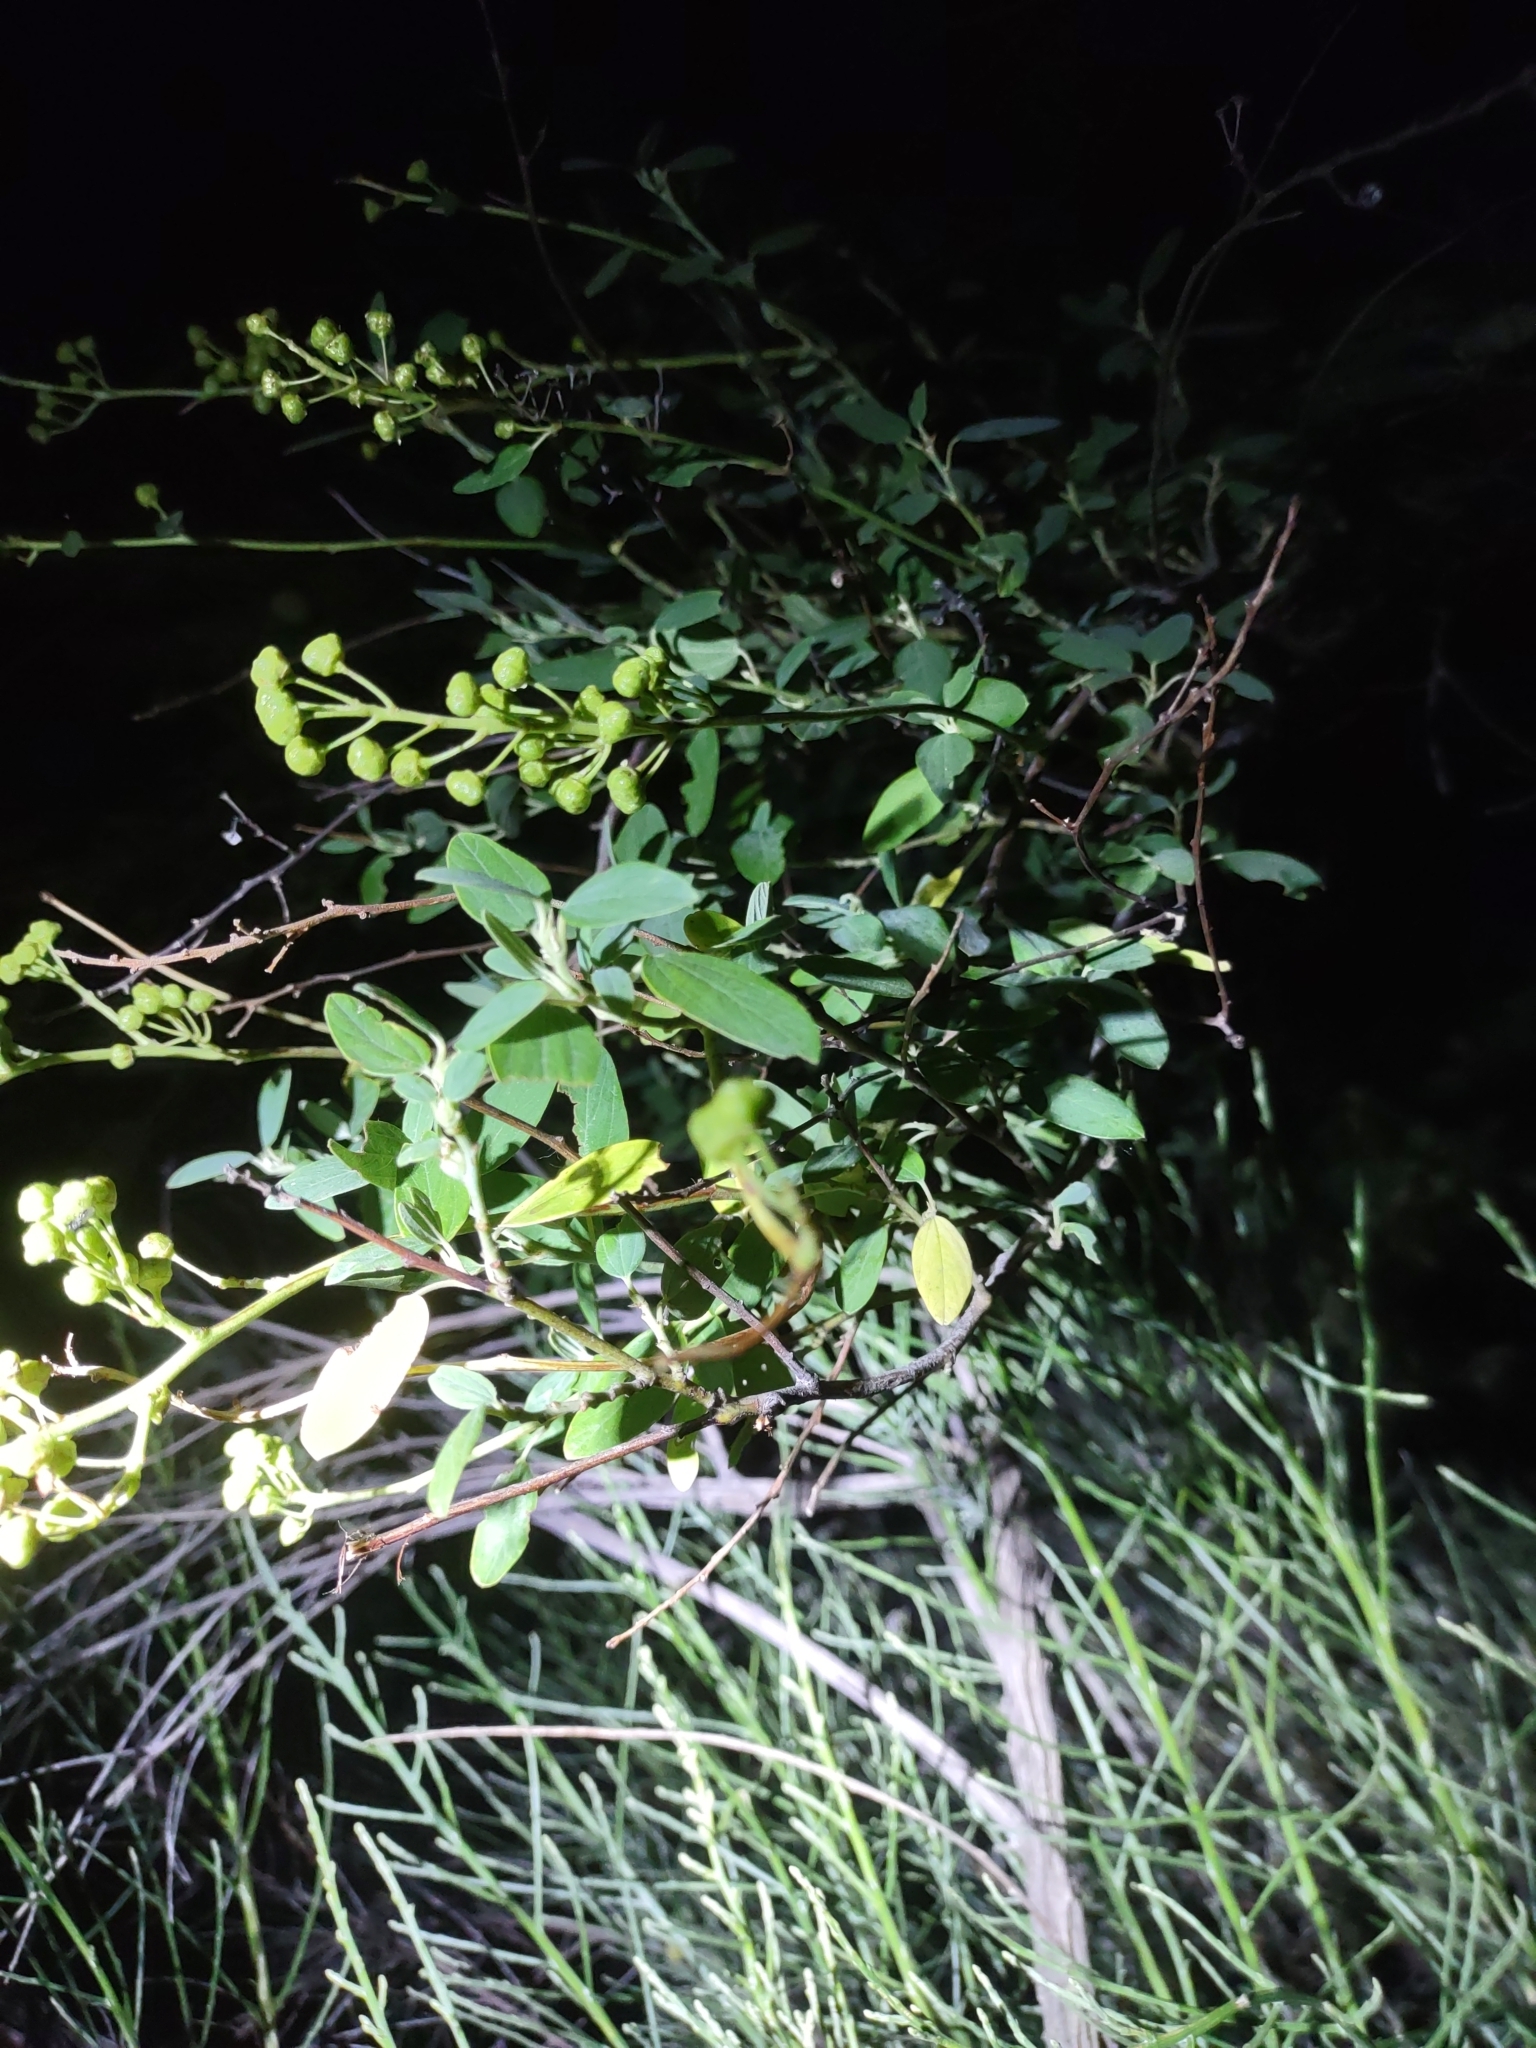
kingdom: Plantae
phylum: Tracheophyta
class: Magnoliopsida
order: Rosales
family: Rhamnaceae
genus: Ceanothus
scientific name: Ceanothus integerrimus
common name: Deerbrush ceanothus
